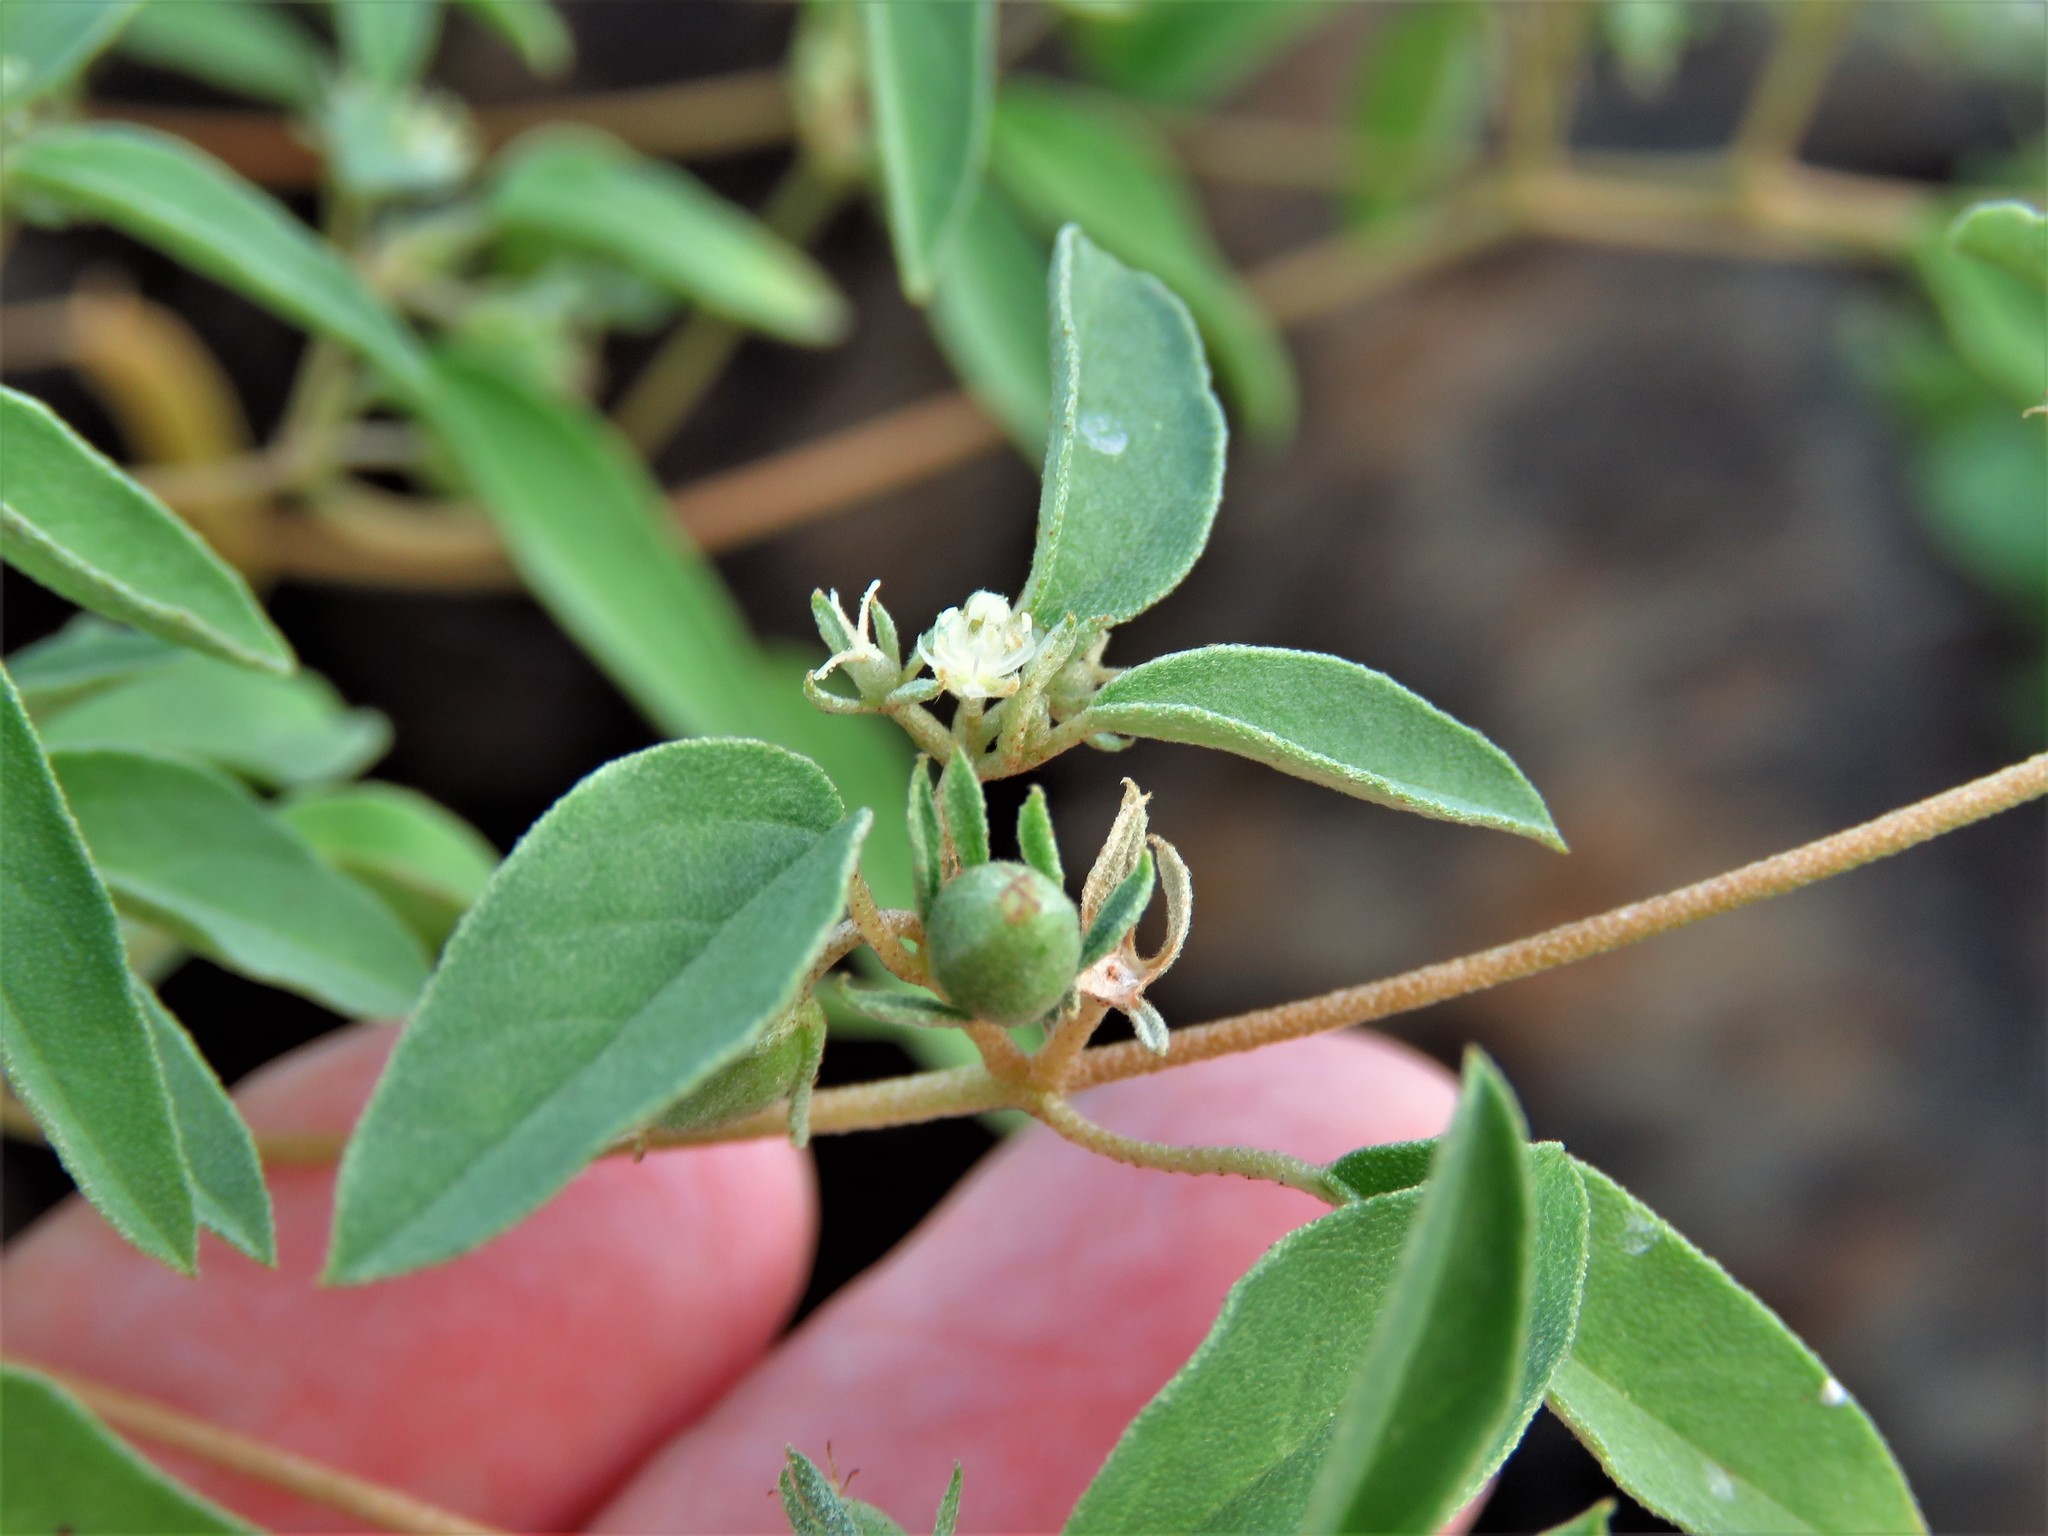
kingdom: Plantae
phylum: Tracheophyta
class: Magnoliopsida
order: Malpighiales
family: Euphorbiaceae
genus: Croton
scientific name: Croton monanthogynus
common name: One-seed croton
